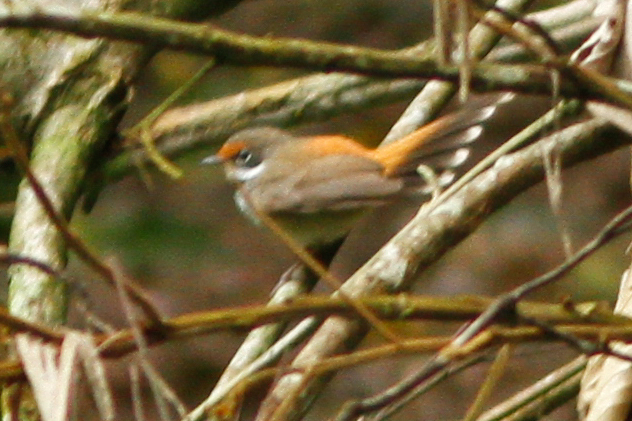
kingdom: Animalia
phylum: Chordata
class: Aves
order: Passeriformes
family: Rhipiduridae
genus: Rhipidura
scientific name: Rhipidura rufifrons
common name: Rufous fantail
